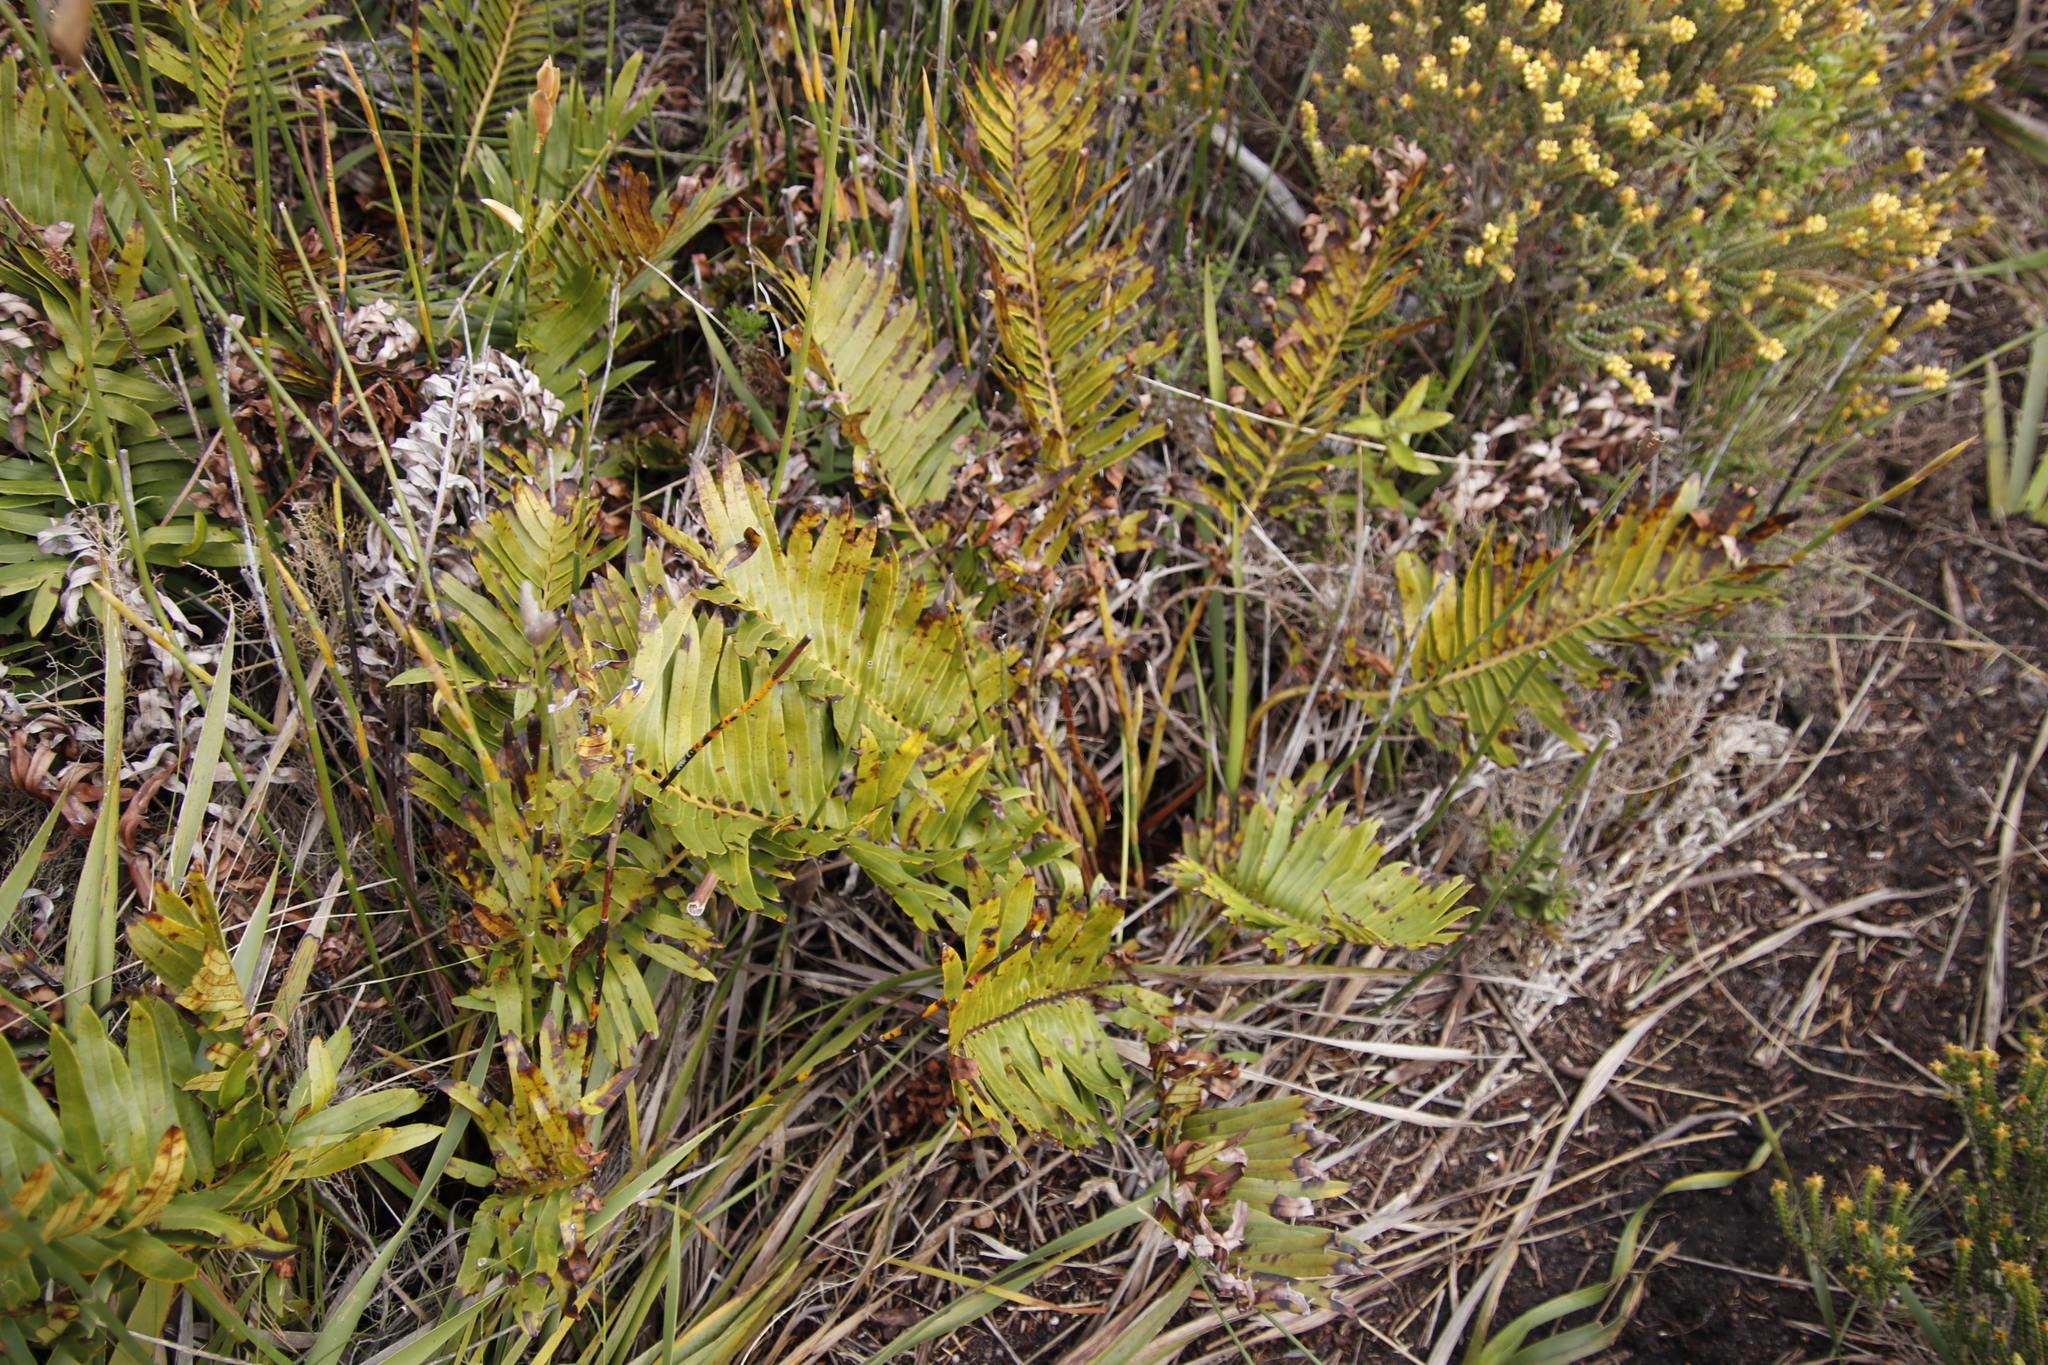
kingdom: Plantae
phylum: Tracheophyta
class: Polypodiopsida
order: Polypodiales
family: Blechnaceae
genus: Lomariocycas
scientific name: Lomariocycas tabularis
